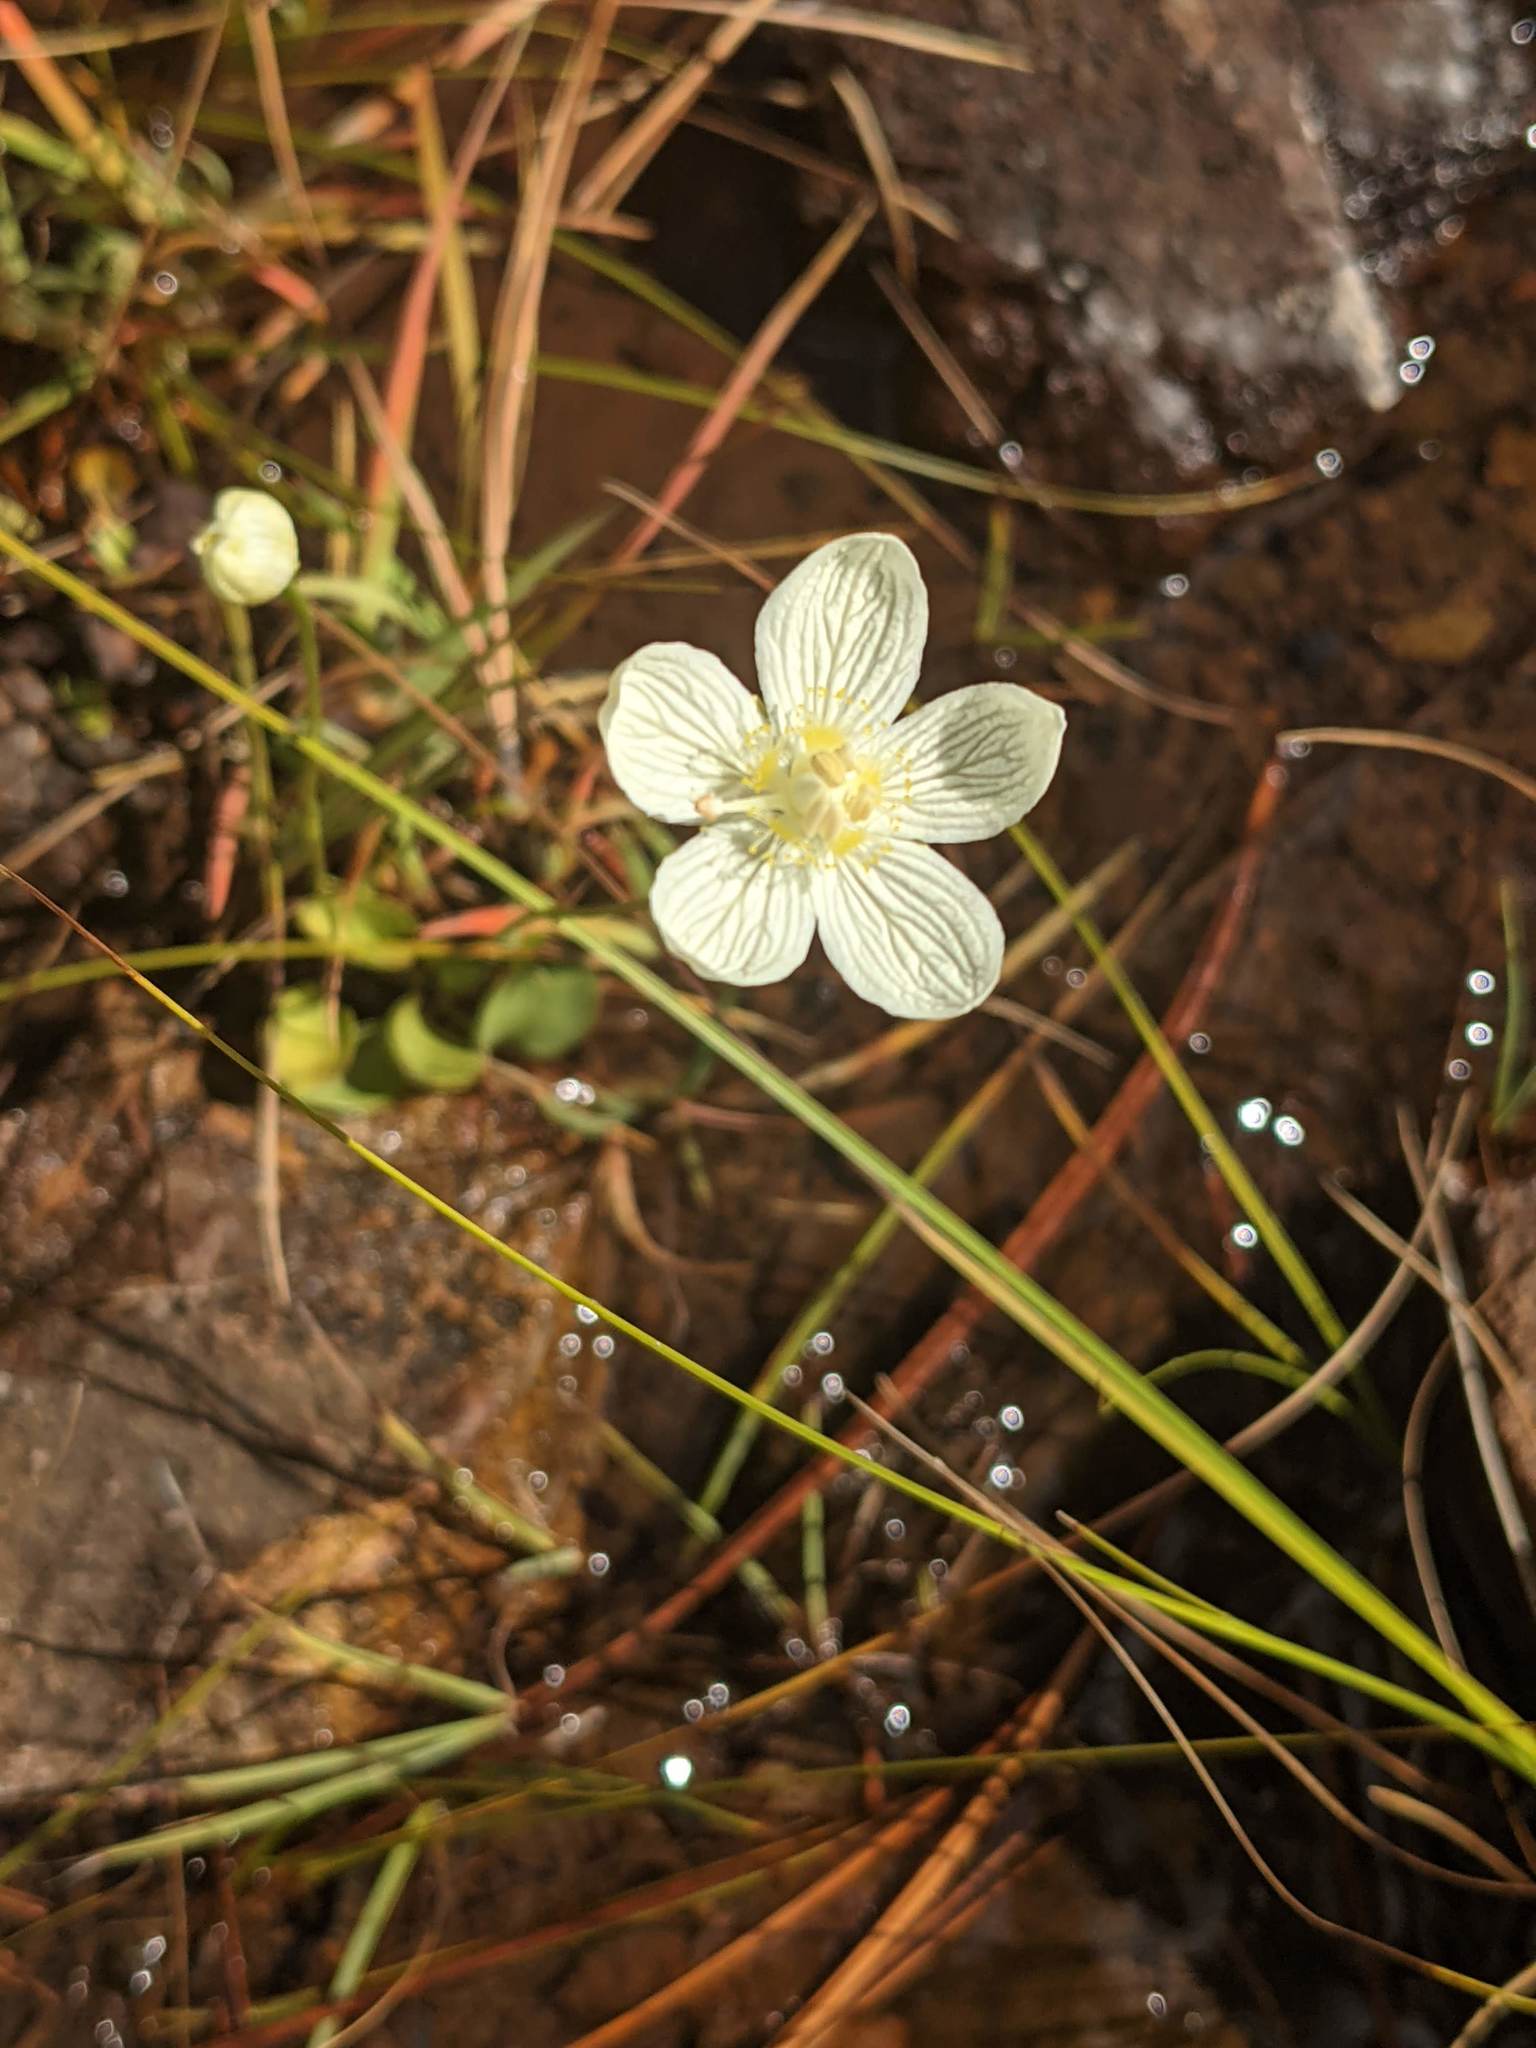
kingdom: Plantae
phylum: Tracheophyta
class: Magnoliopsida
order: Celastrales
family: Parnassiaceae
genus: Parnassia
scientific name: Parnassia palustris
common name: Grass-of-parnassus
